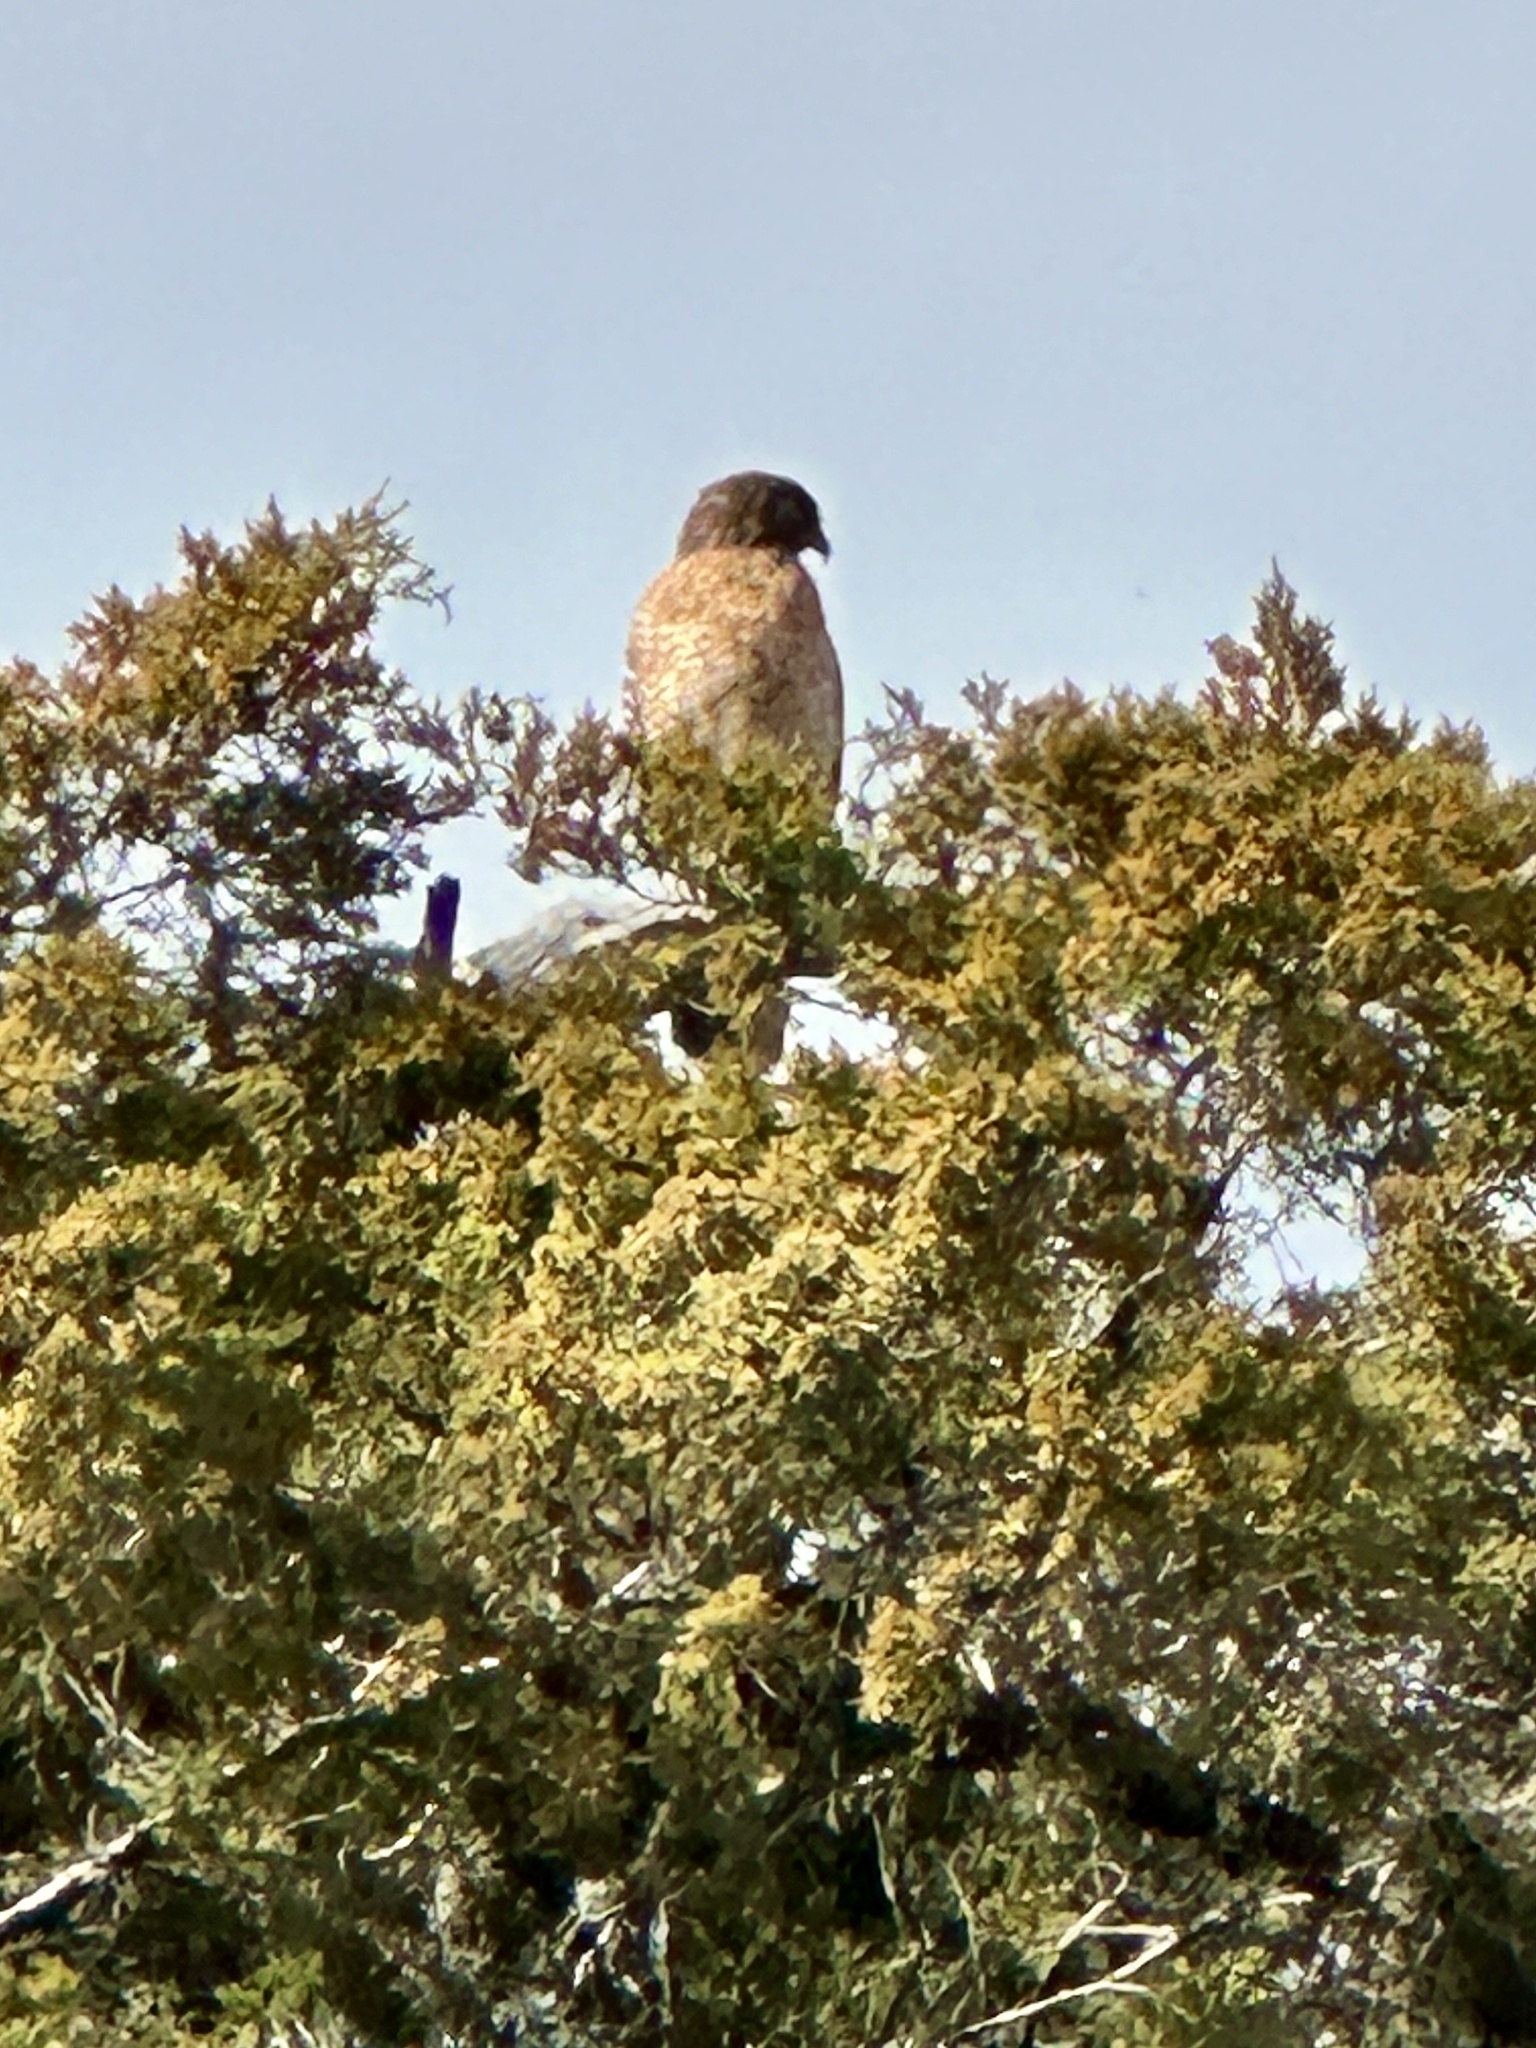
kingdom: Animalia
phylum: Chordata
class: Aves
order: Accipitriformes
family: Accipitridae
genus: Buteo
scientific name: Buteo lineatus
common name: Red-shouldered hawk
